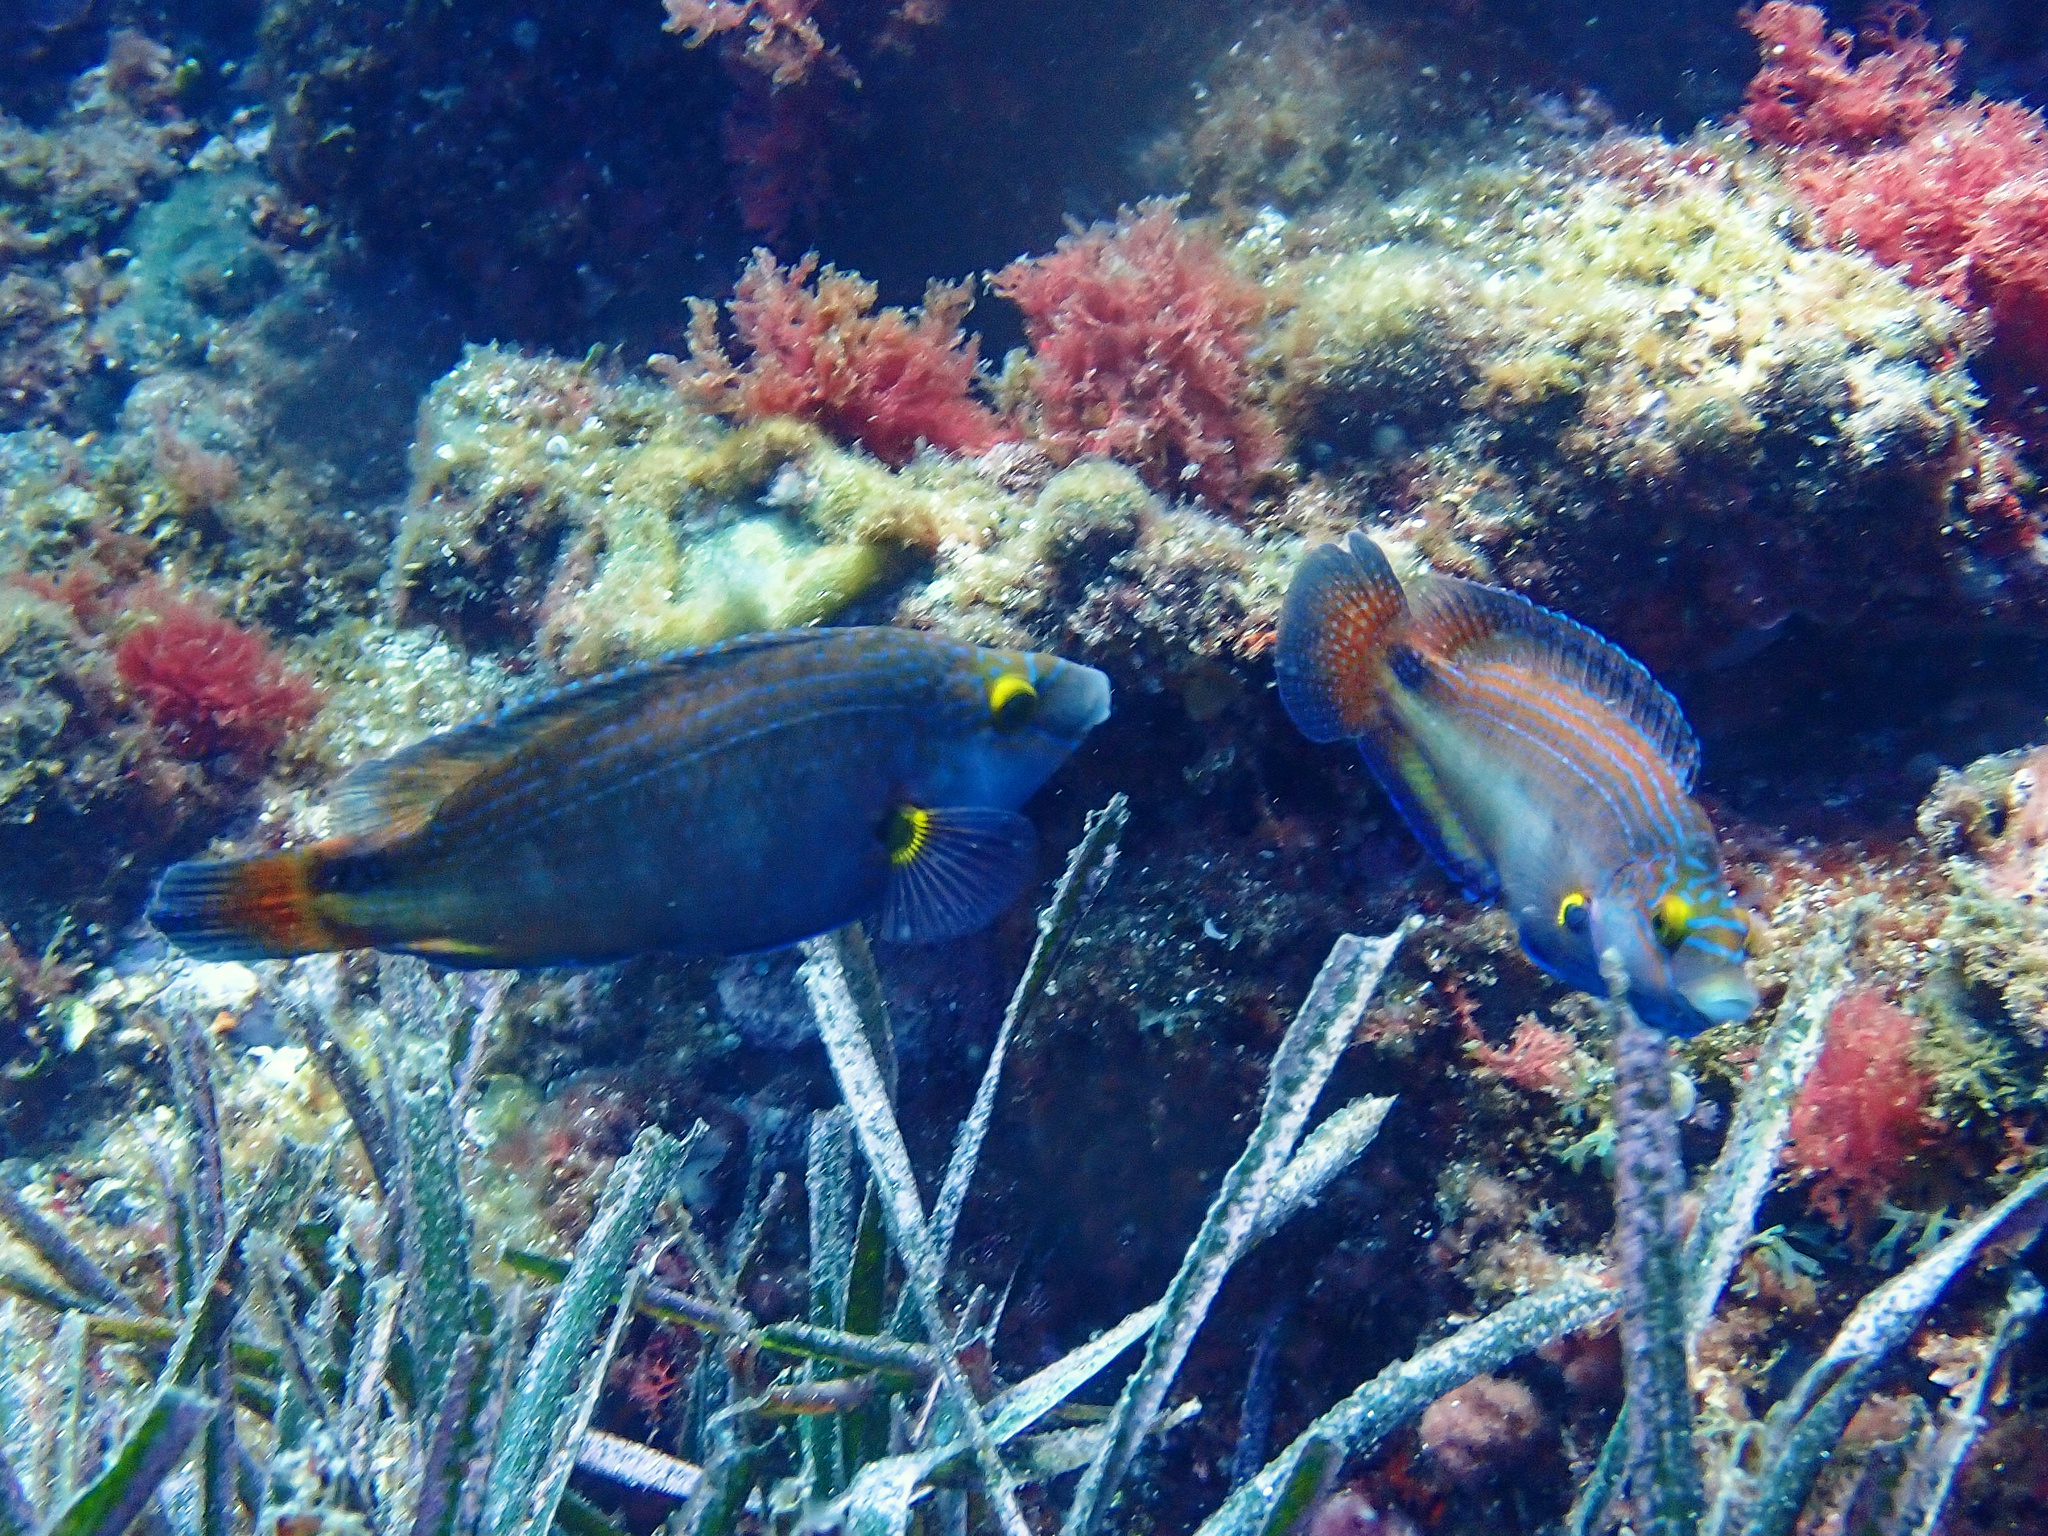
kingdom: Animalia
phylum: Chordata
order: Perciformes
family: Labridae
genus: Symphodus
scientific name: Symphodus mediterraneus
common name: Axillary wrasse
